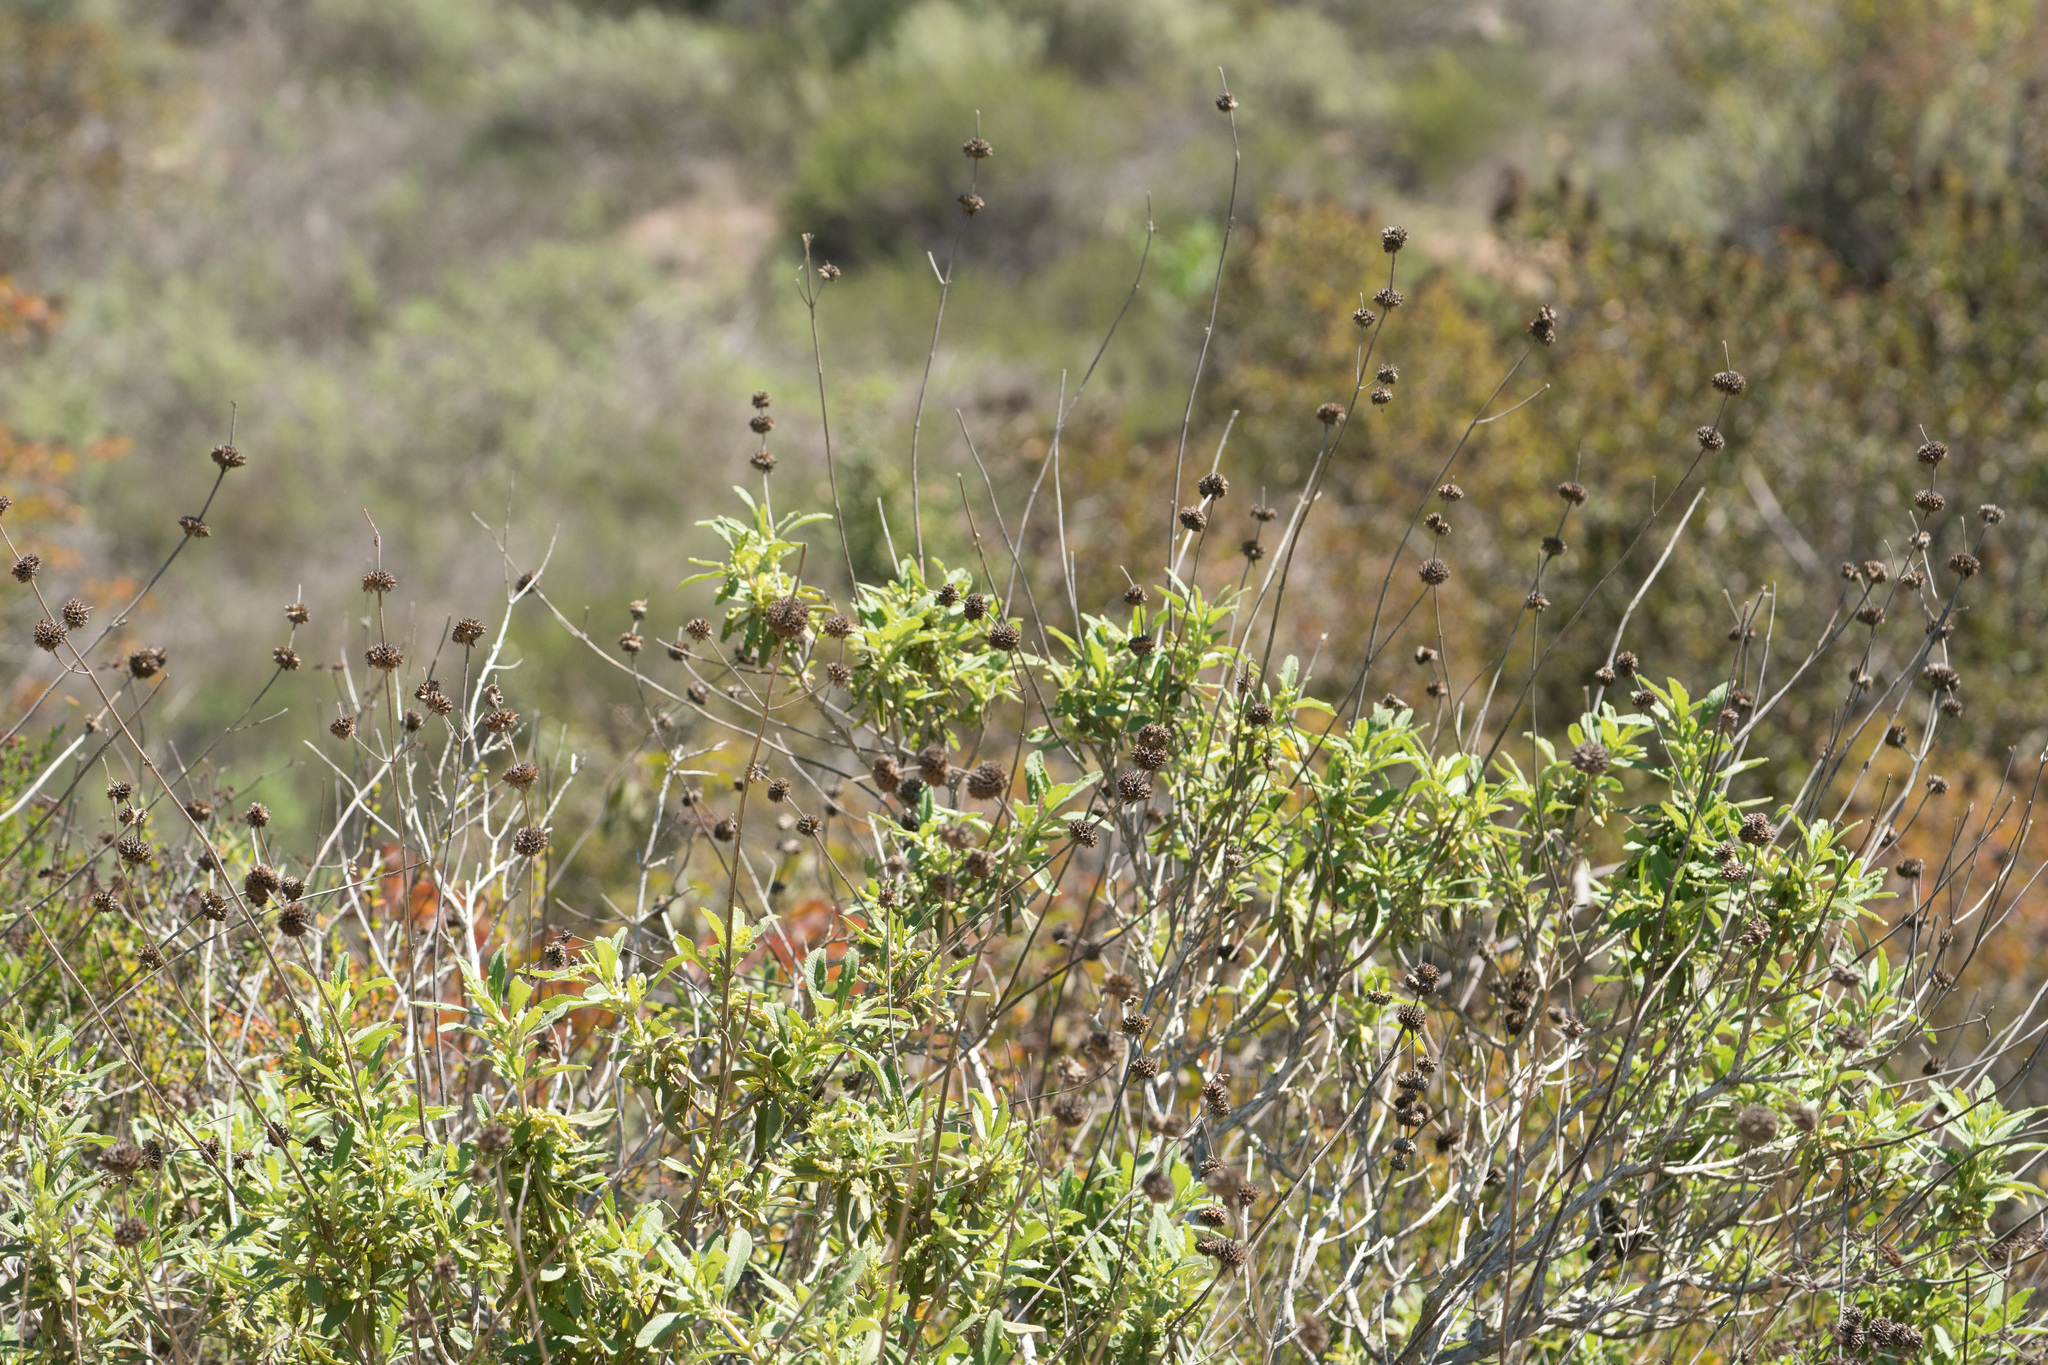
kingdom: Plantae
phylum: Tracheophyta
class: Magnoliopsida
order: Lamiales
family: Lamiaceae
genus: Salvia
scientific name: Salvia mellifera
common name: Black sage
